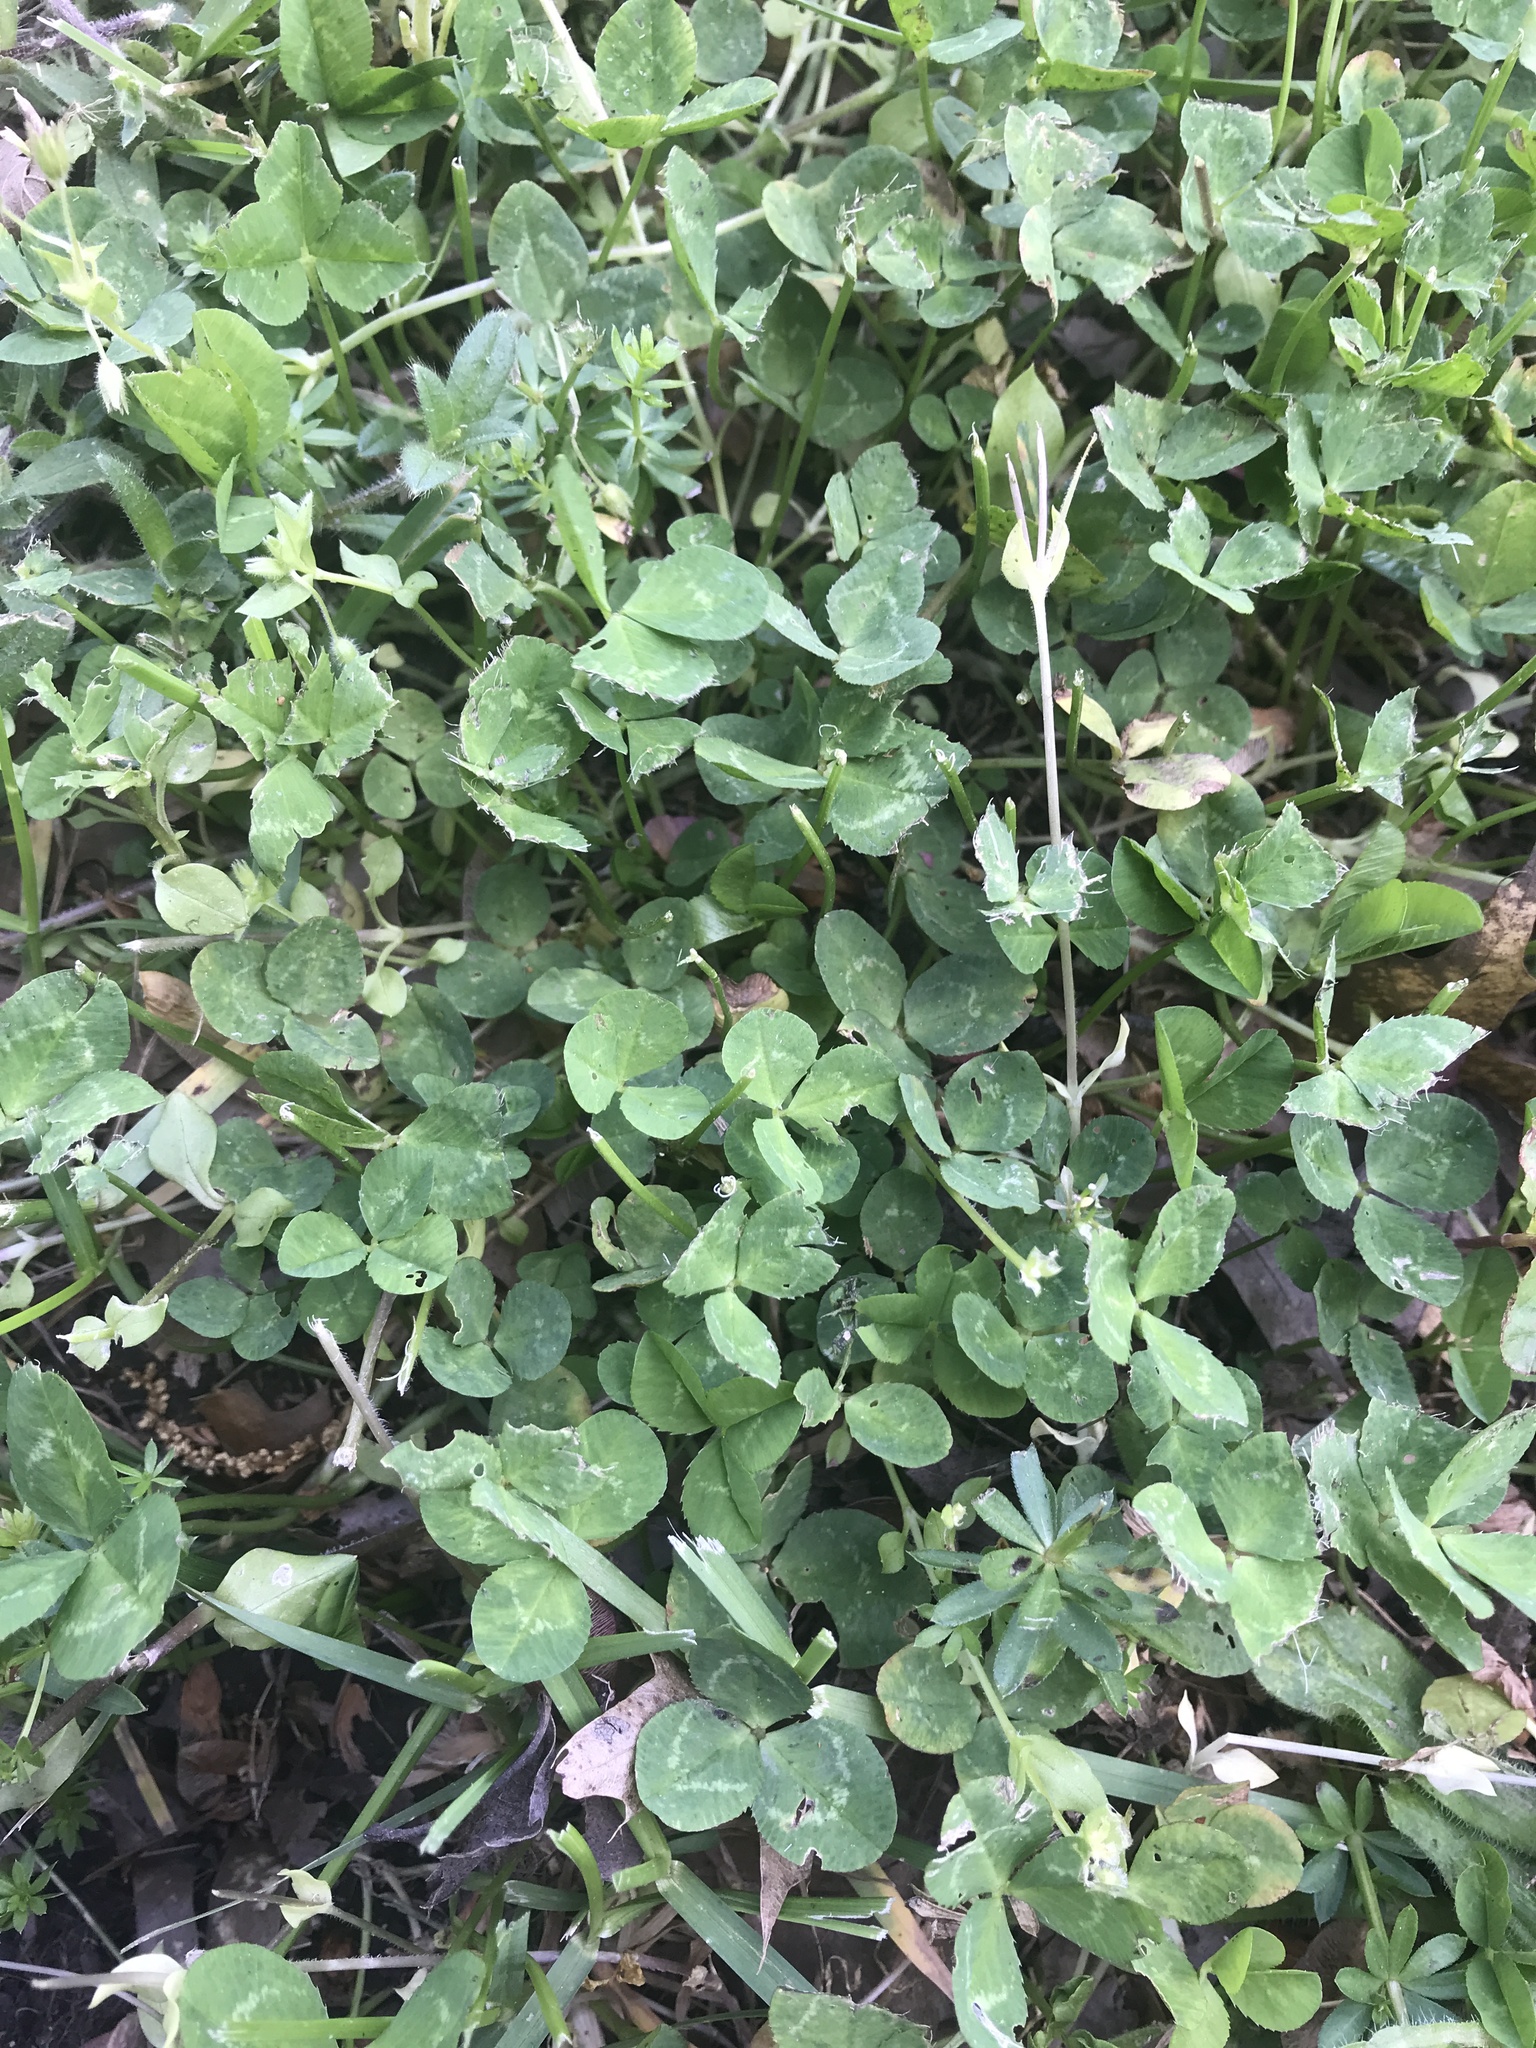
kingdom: Plantae
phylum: Tracheophyta
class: Magnoliopsida
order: Fabales
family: Fabaceae
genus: Trifolium
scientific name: Trifolium repens
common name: White clover
